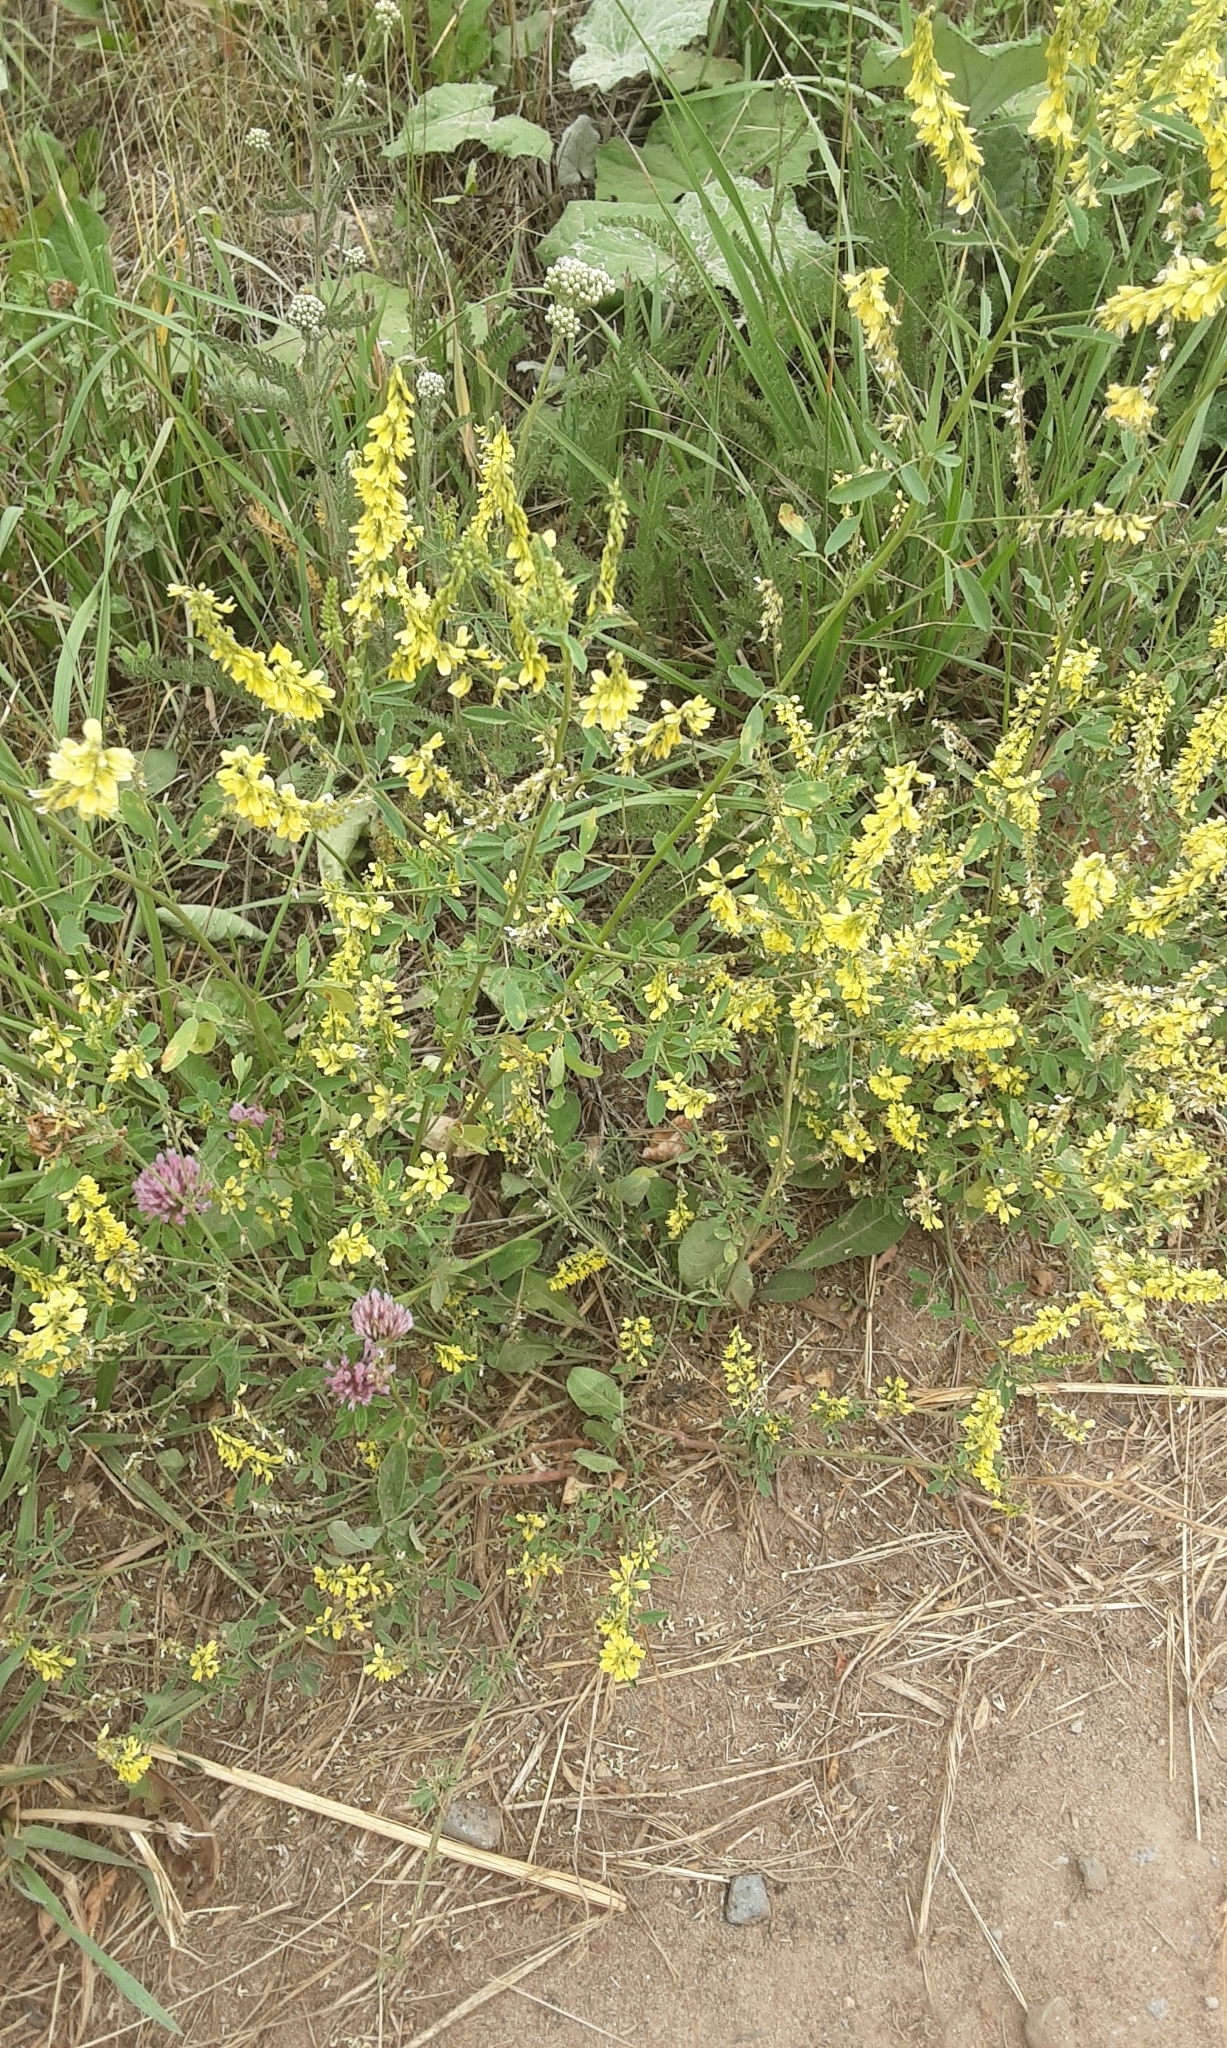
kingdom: Plantae
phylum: Tracheophyta
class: Magnoliopsida
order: Fabales
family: Fabaceae
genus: Melilotus
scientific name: Melilotus officinalis
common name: Sweetclover
